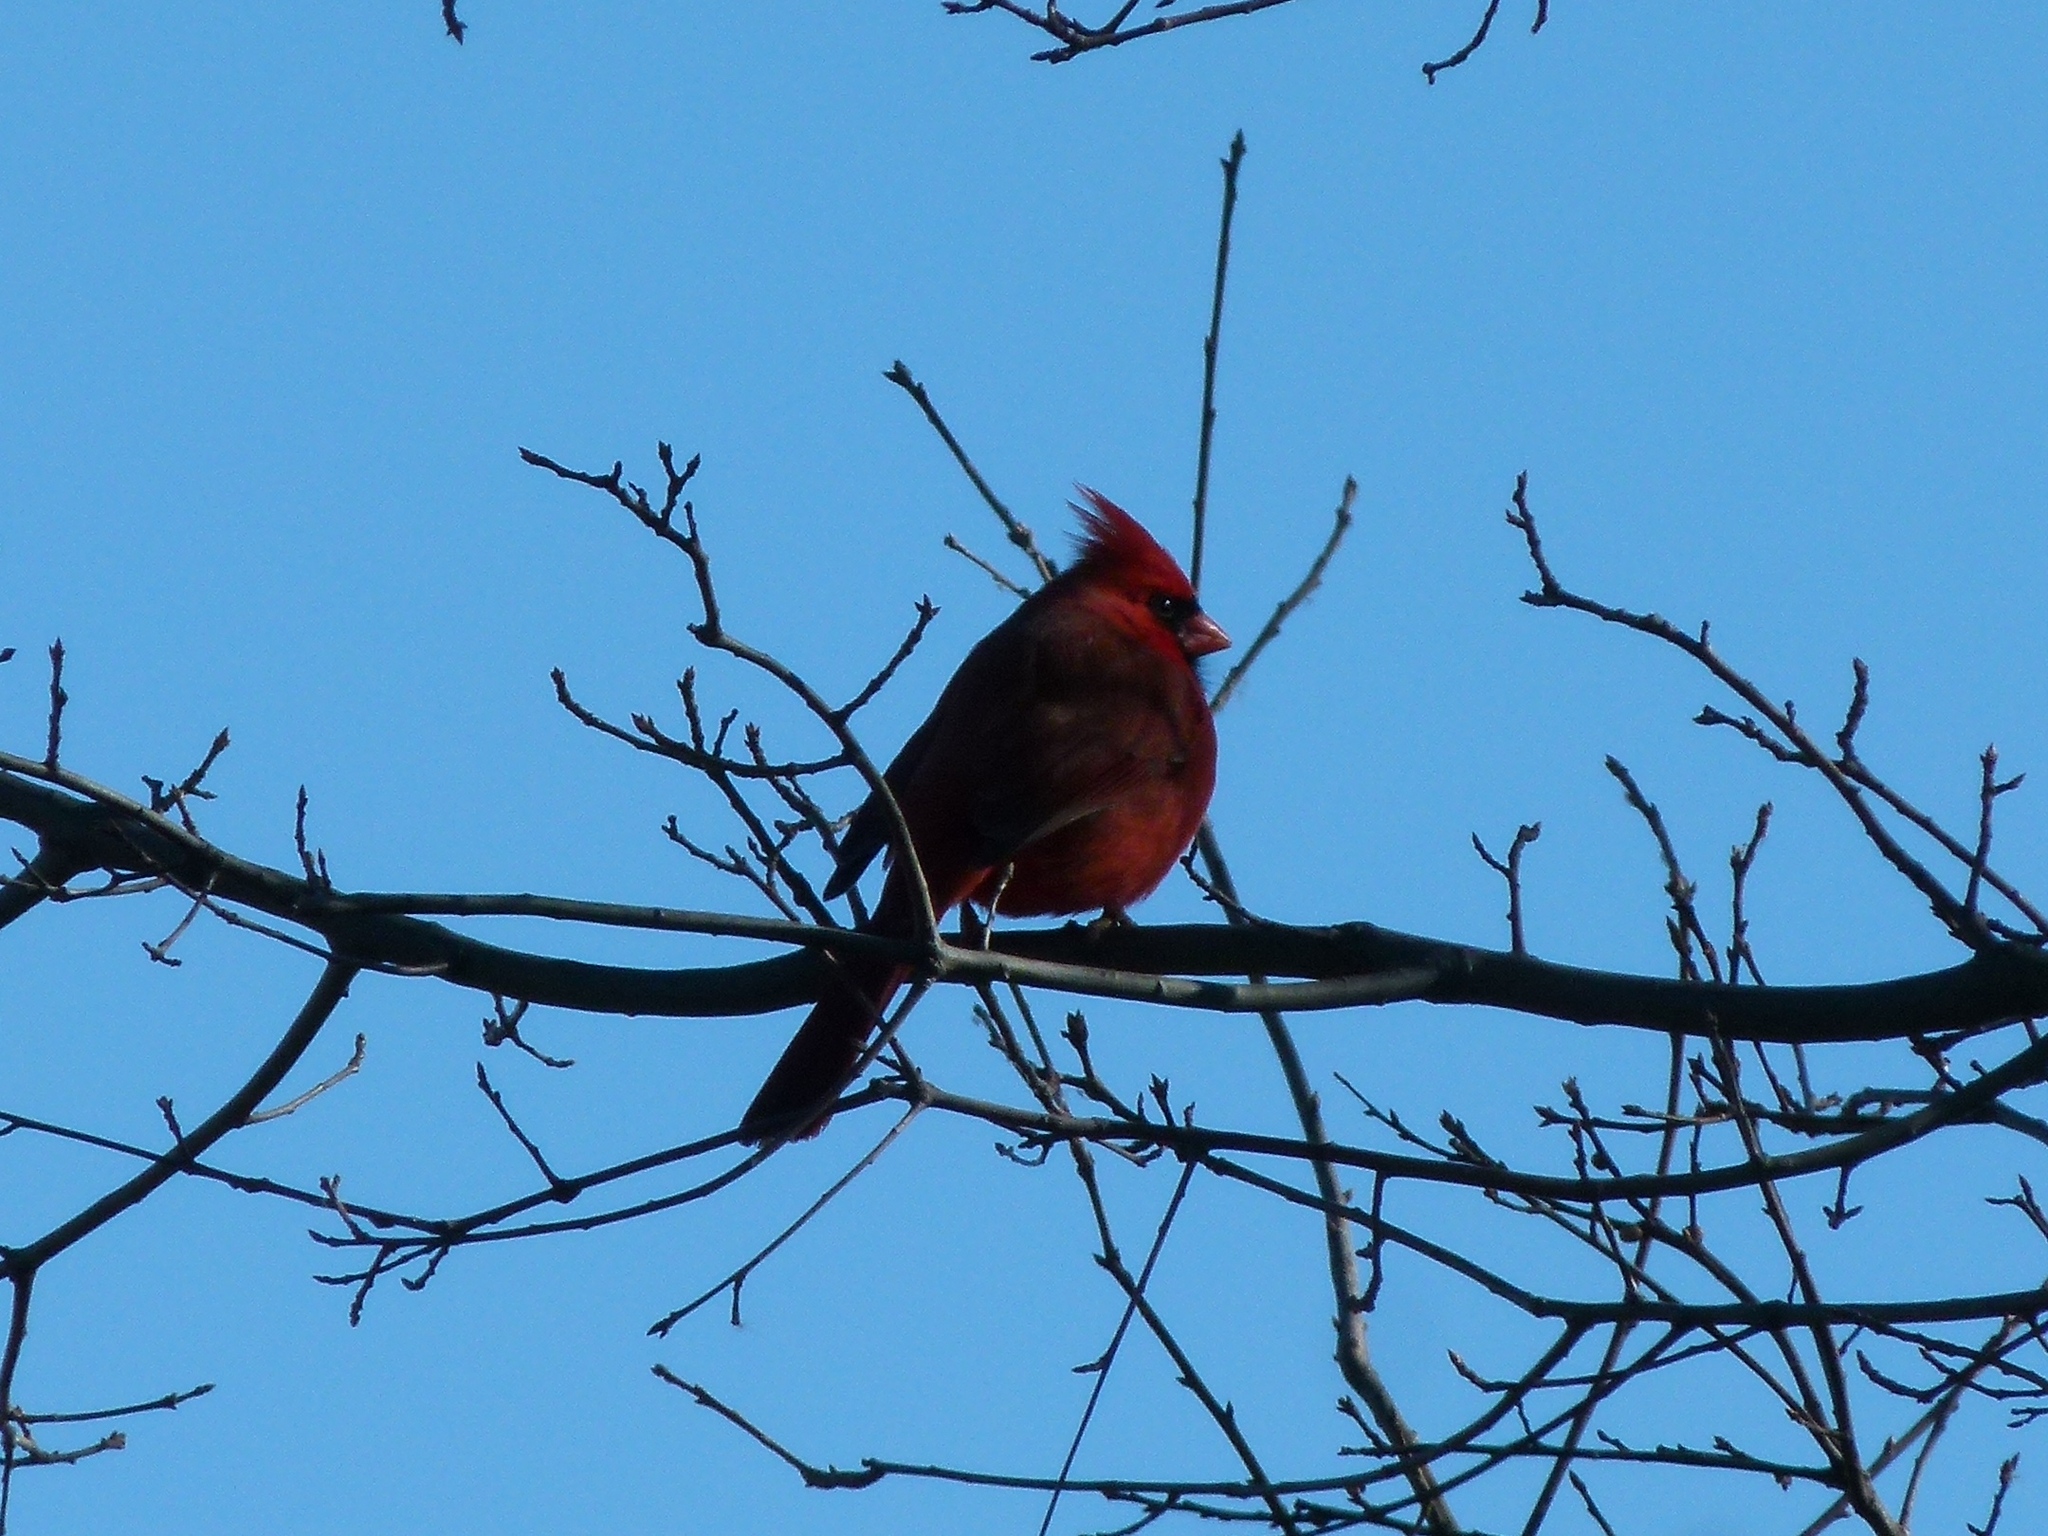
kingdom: Animalia
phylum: Chordata
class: Aves
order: Passeriformes
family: Cardinalidae
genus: Cardinalis
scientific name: Cardinalis cardinalis
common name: Northern cardinal
